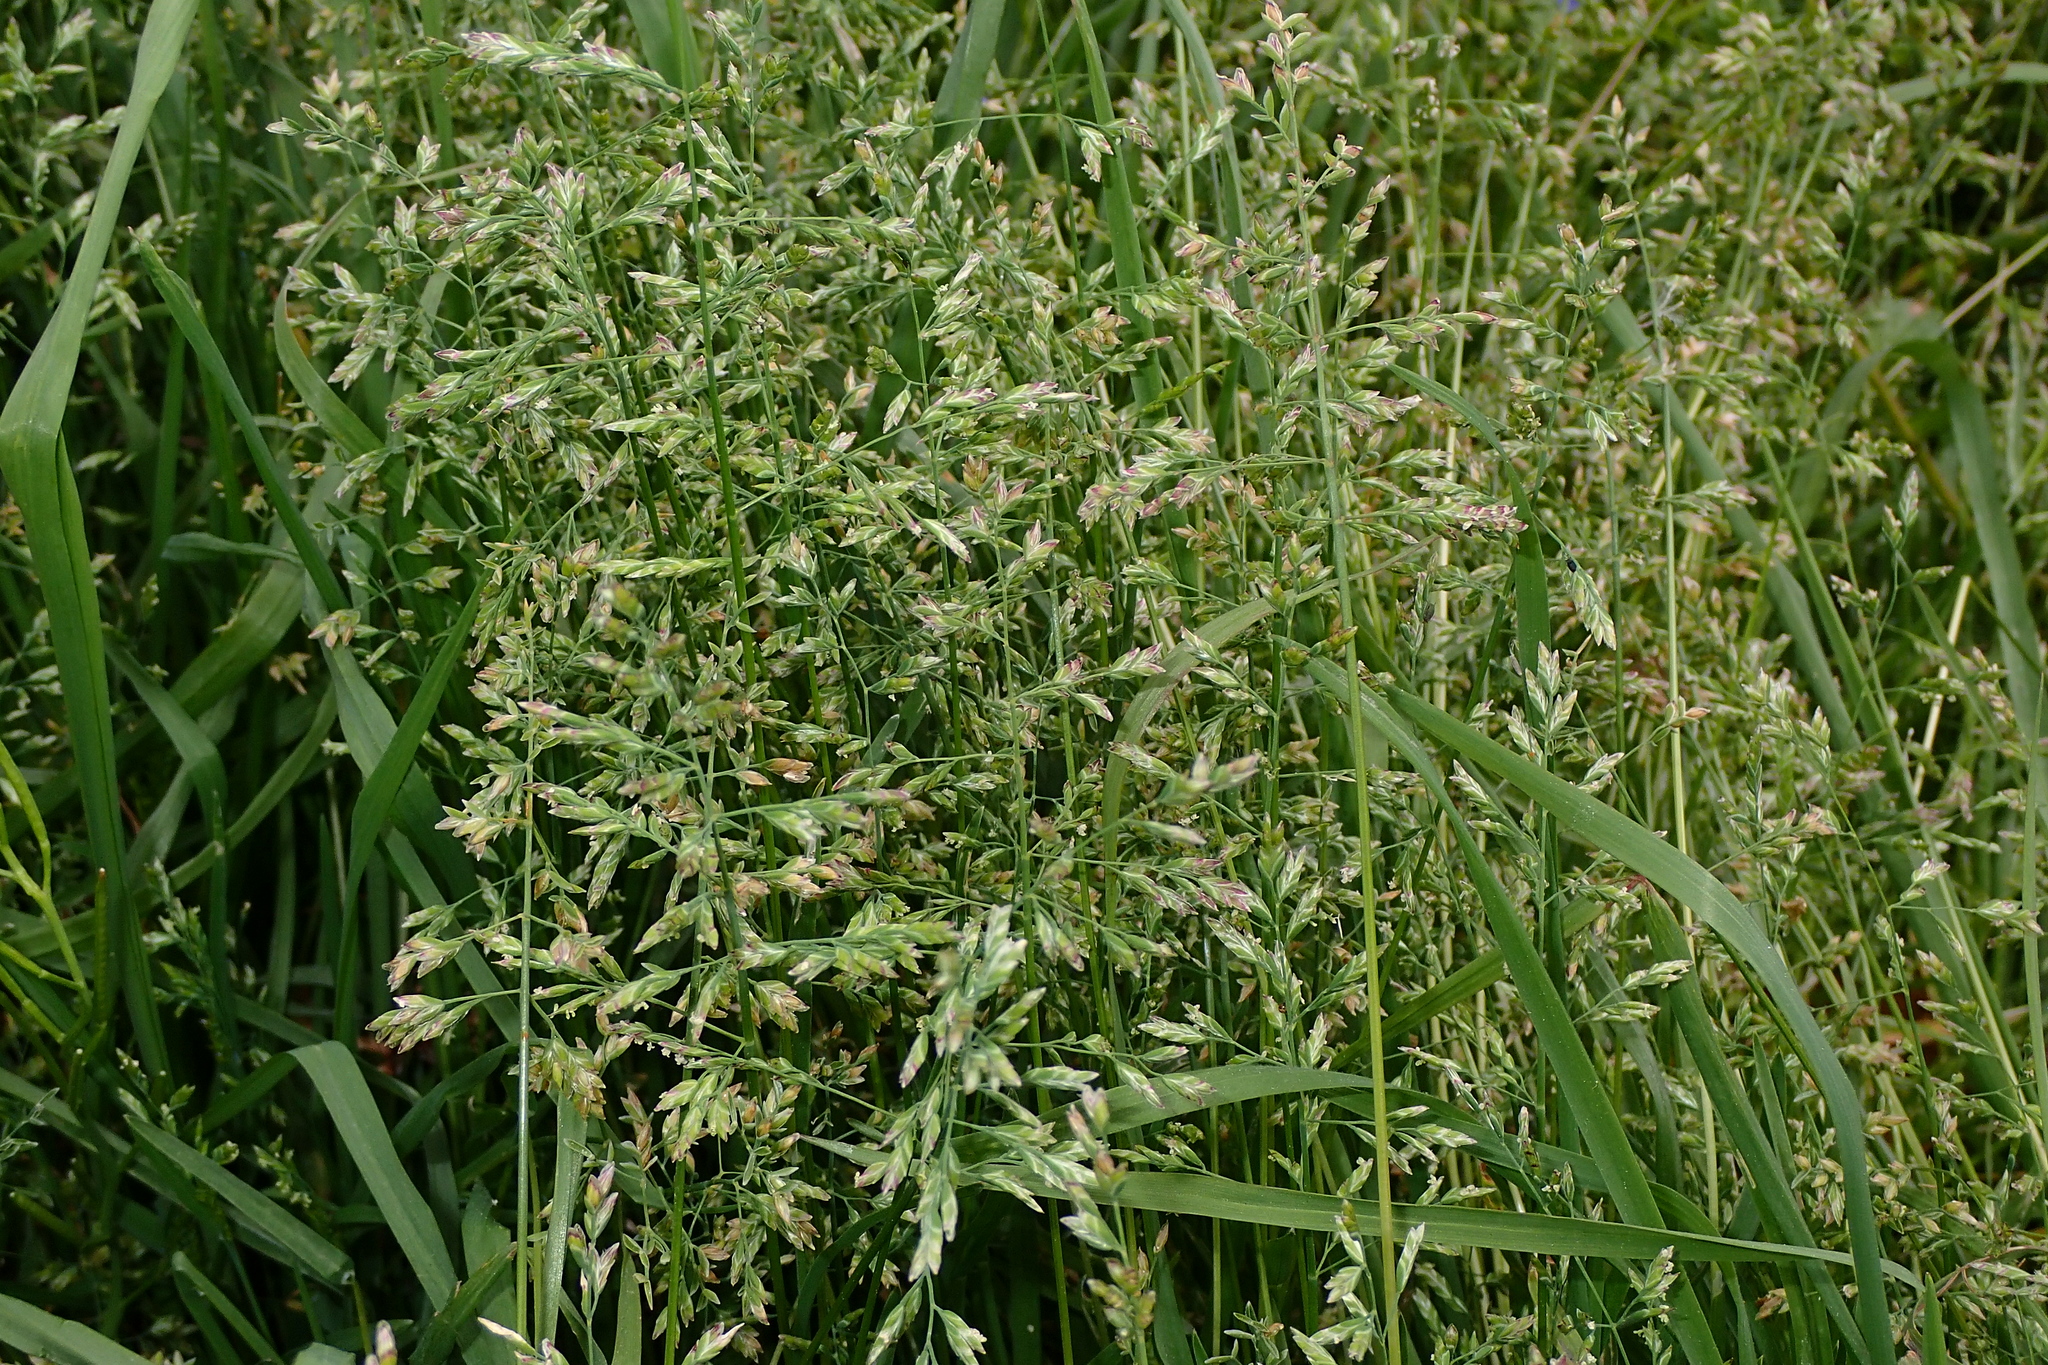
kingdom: Plantae
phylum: Tracheophyta
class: Liliopsida
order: Poales
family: Poaceae
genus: Poa
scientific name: Poa annua
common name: Annual bluegrass
